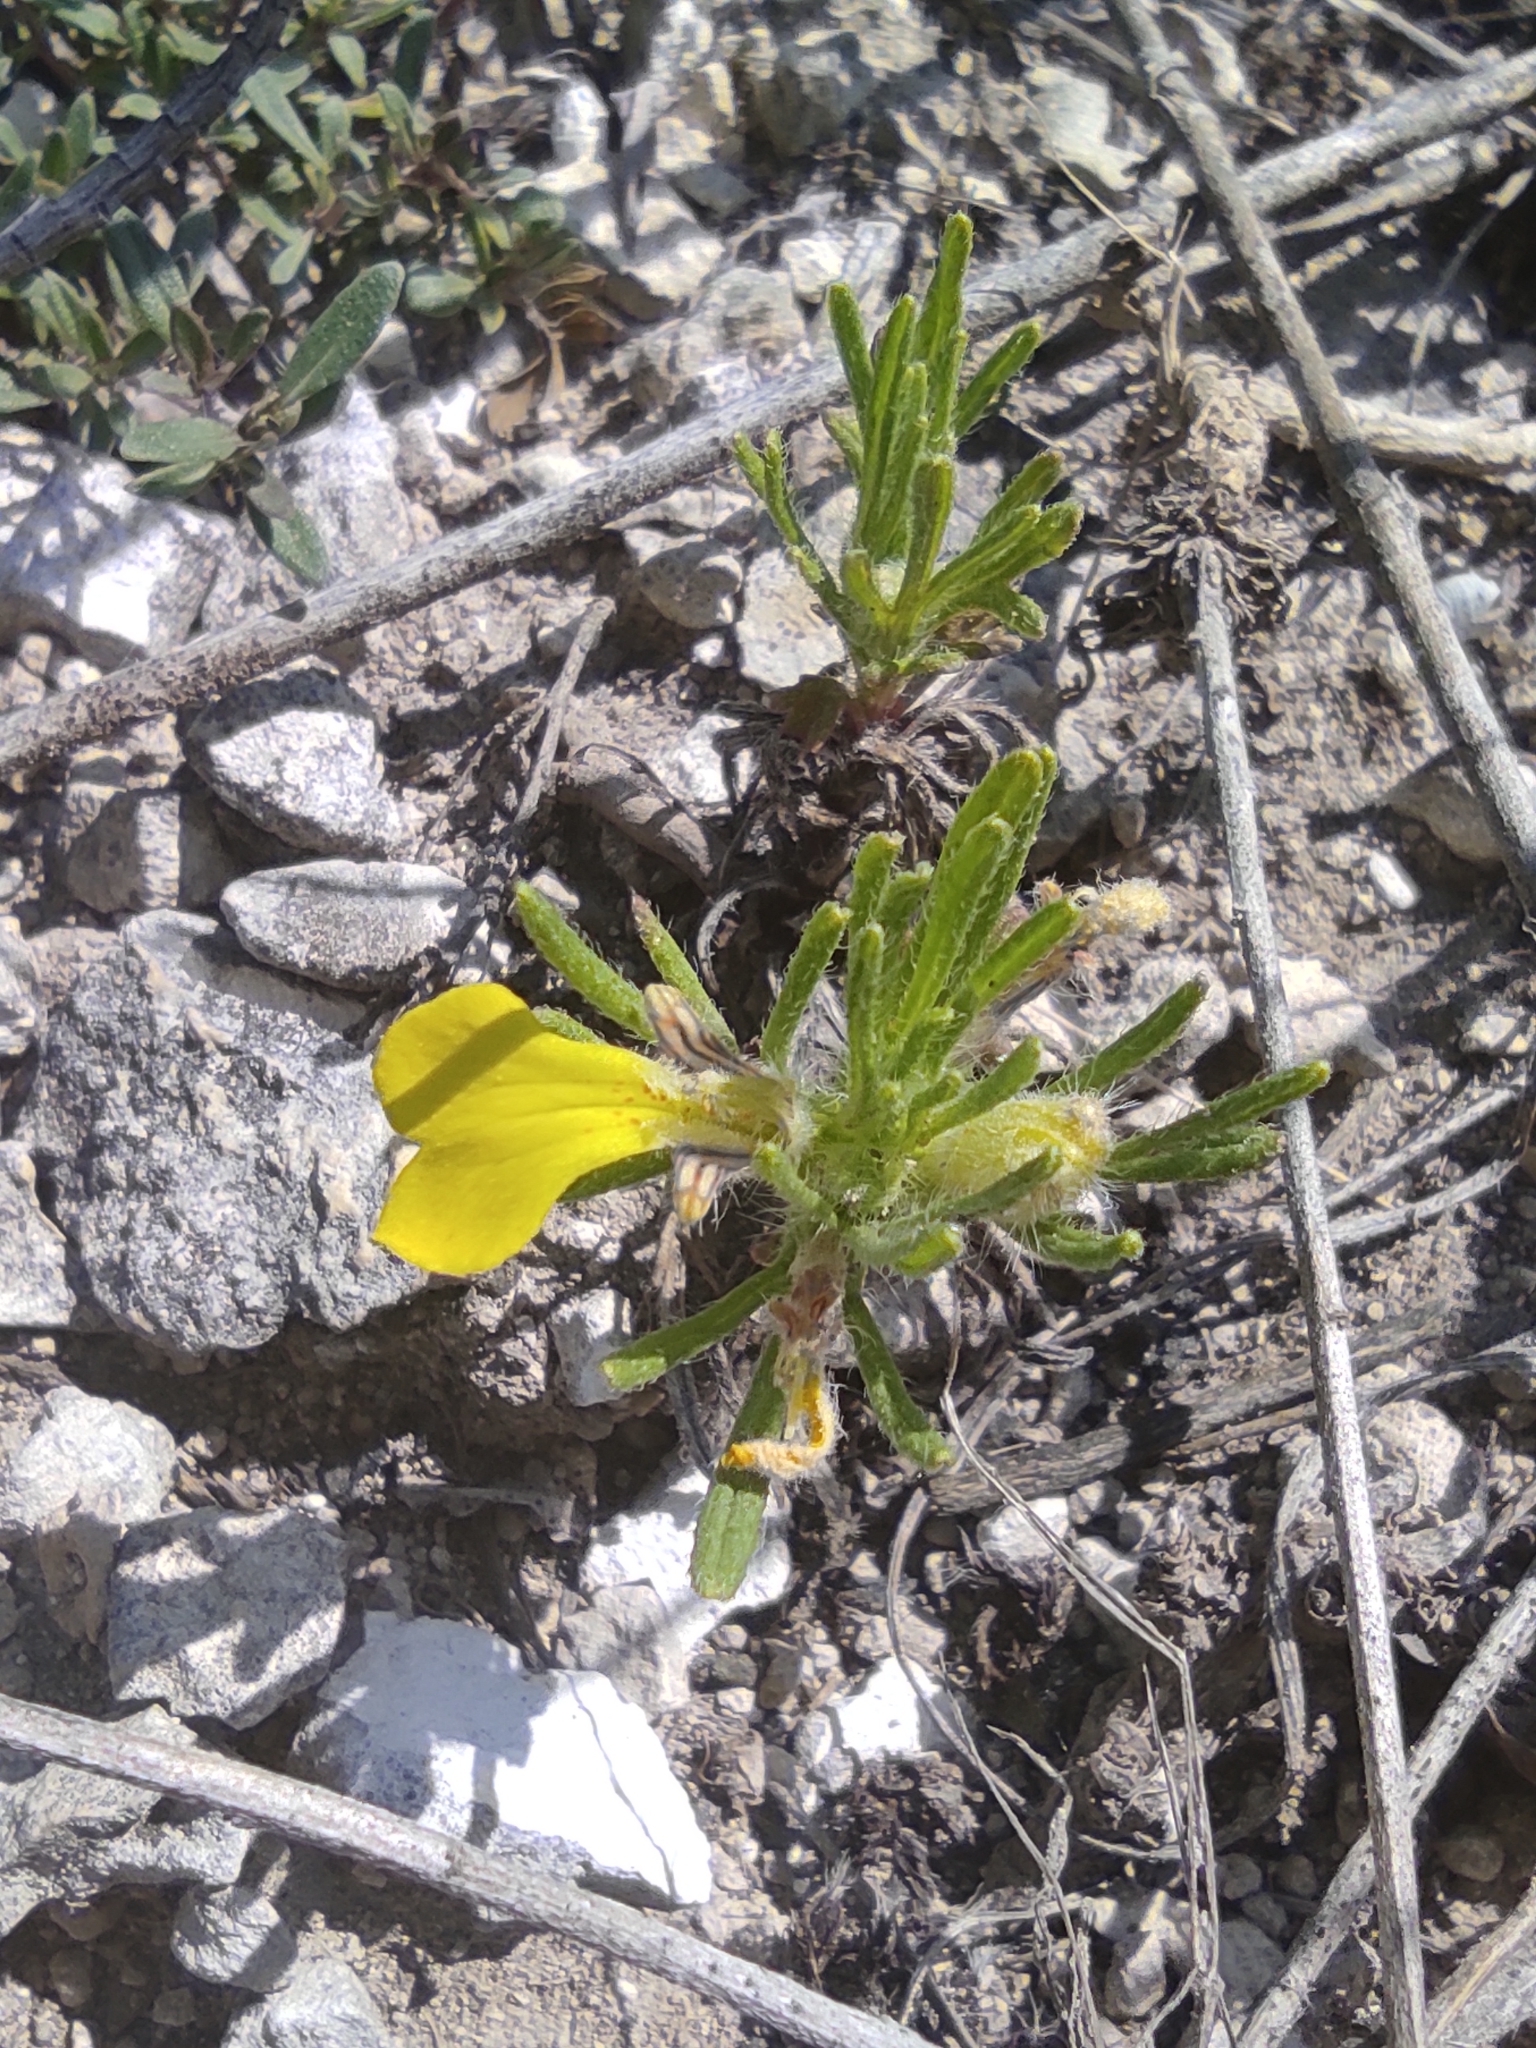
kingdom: Plantae
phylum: Tracheophyta
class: Magnoliopsida
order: Lamiales
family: Lamiaceae
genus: Ajuga
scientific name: Ajuga chamaepitys
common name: Ground-pine
